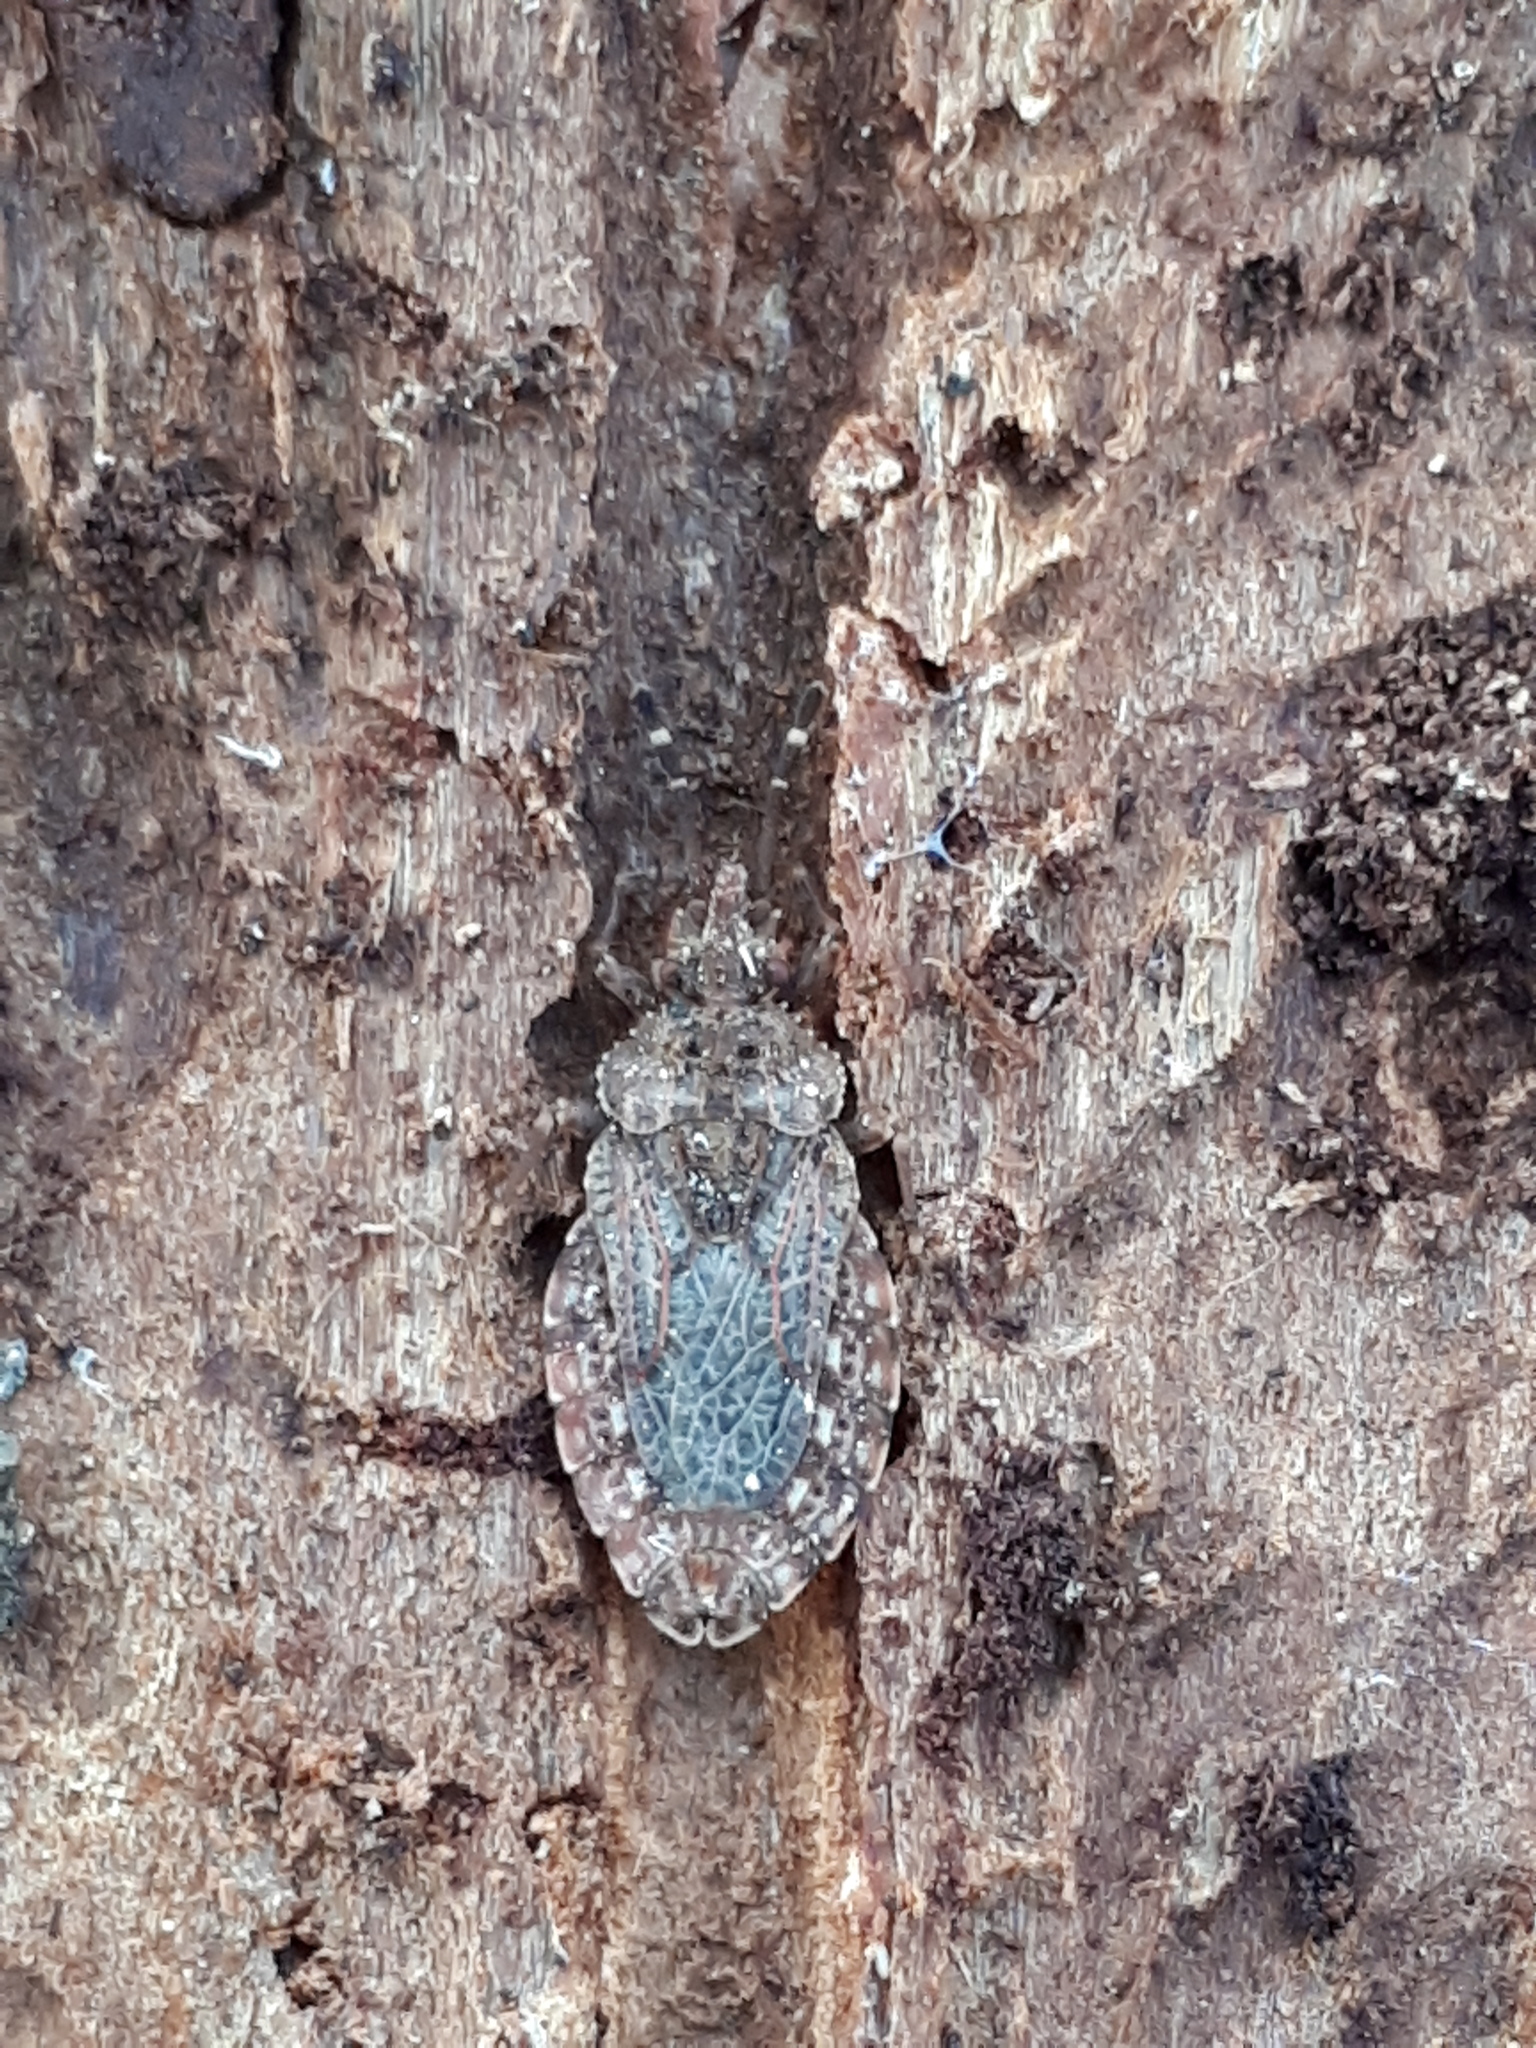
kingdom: Animalia
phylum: Arthropoda
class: Insecta
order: Hemiptera
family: Aradidae
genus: Aradus
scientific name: Aradus obtectus
